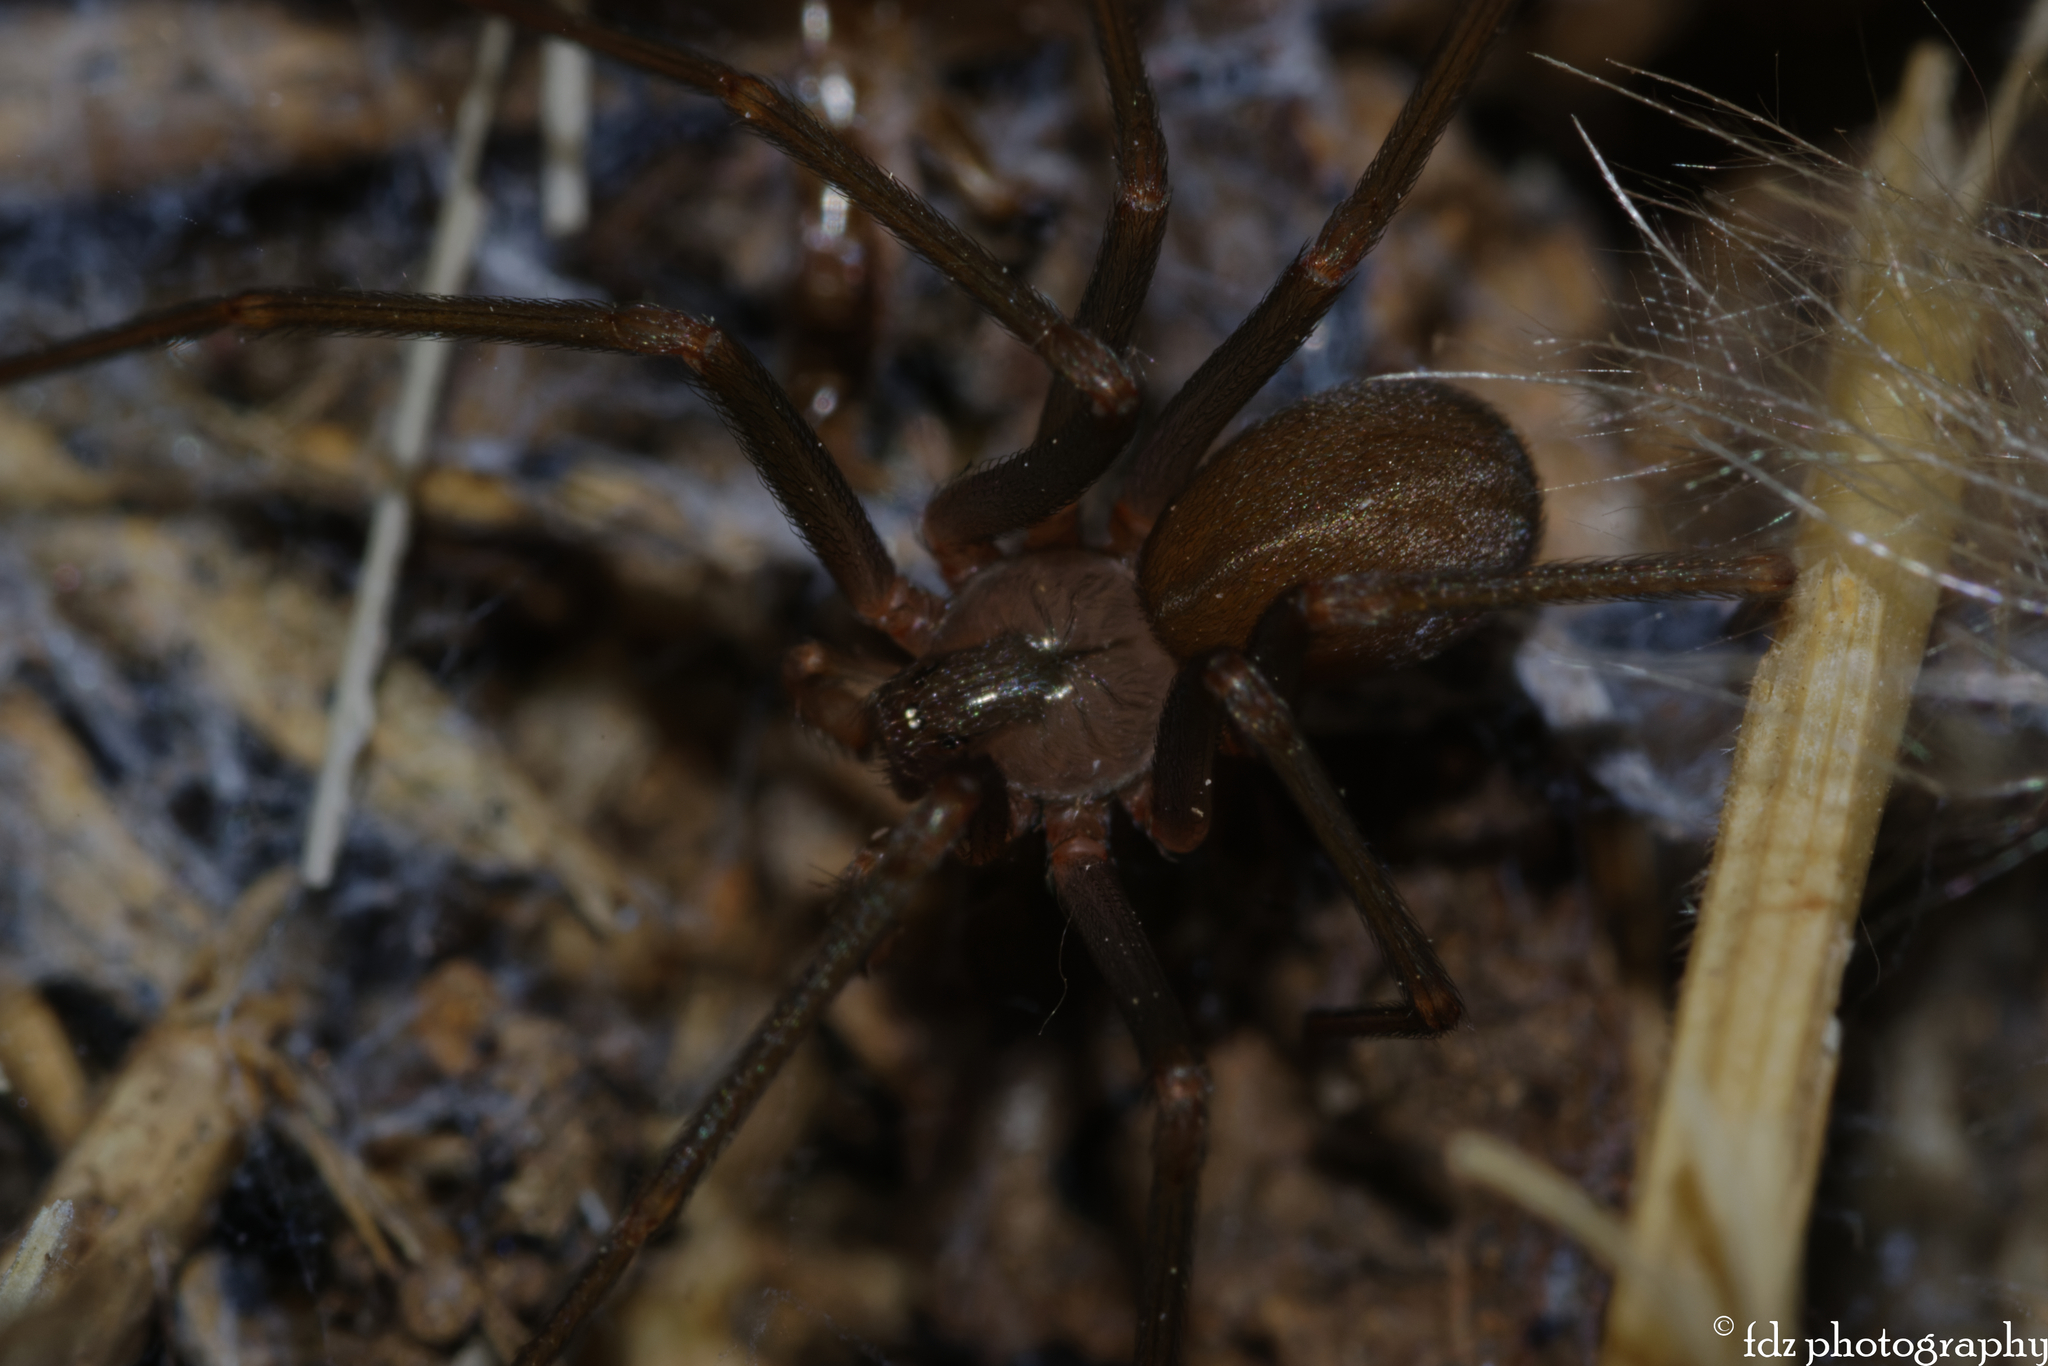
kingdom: Animalia
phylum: Arthropoda
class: Arachnida
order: Araneae
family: Sicariidae
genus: Loxosceles
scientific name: Loxosceles rufescens
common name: Mediterranean recluse spider
